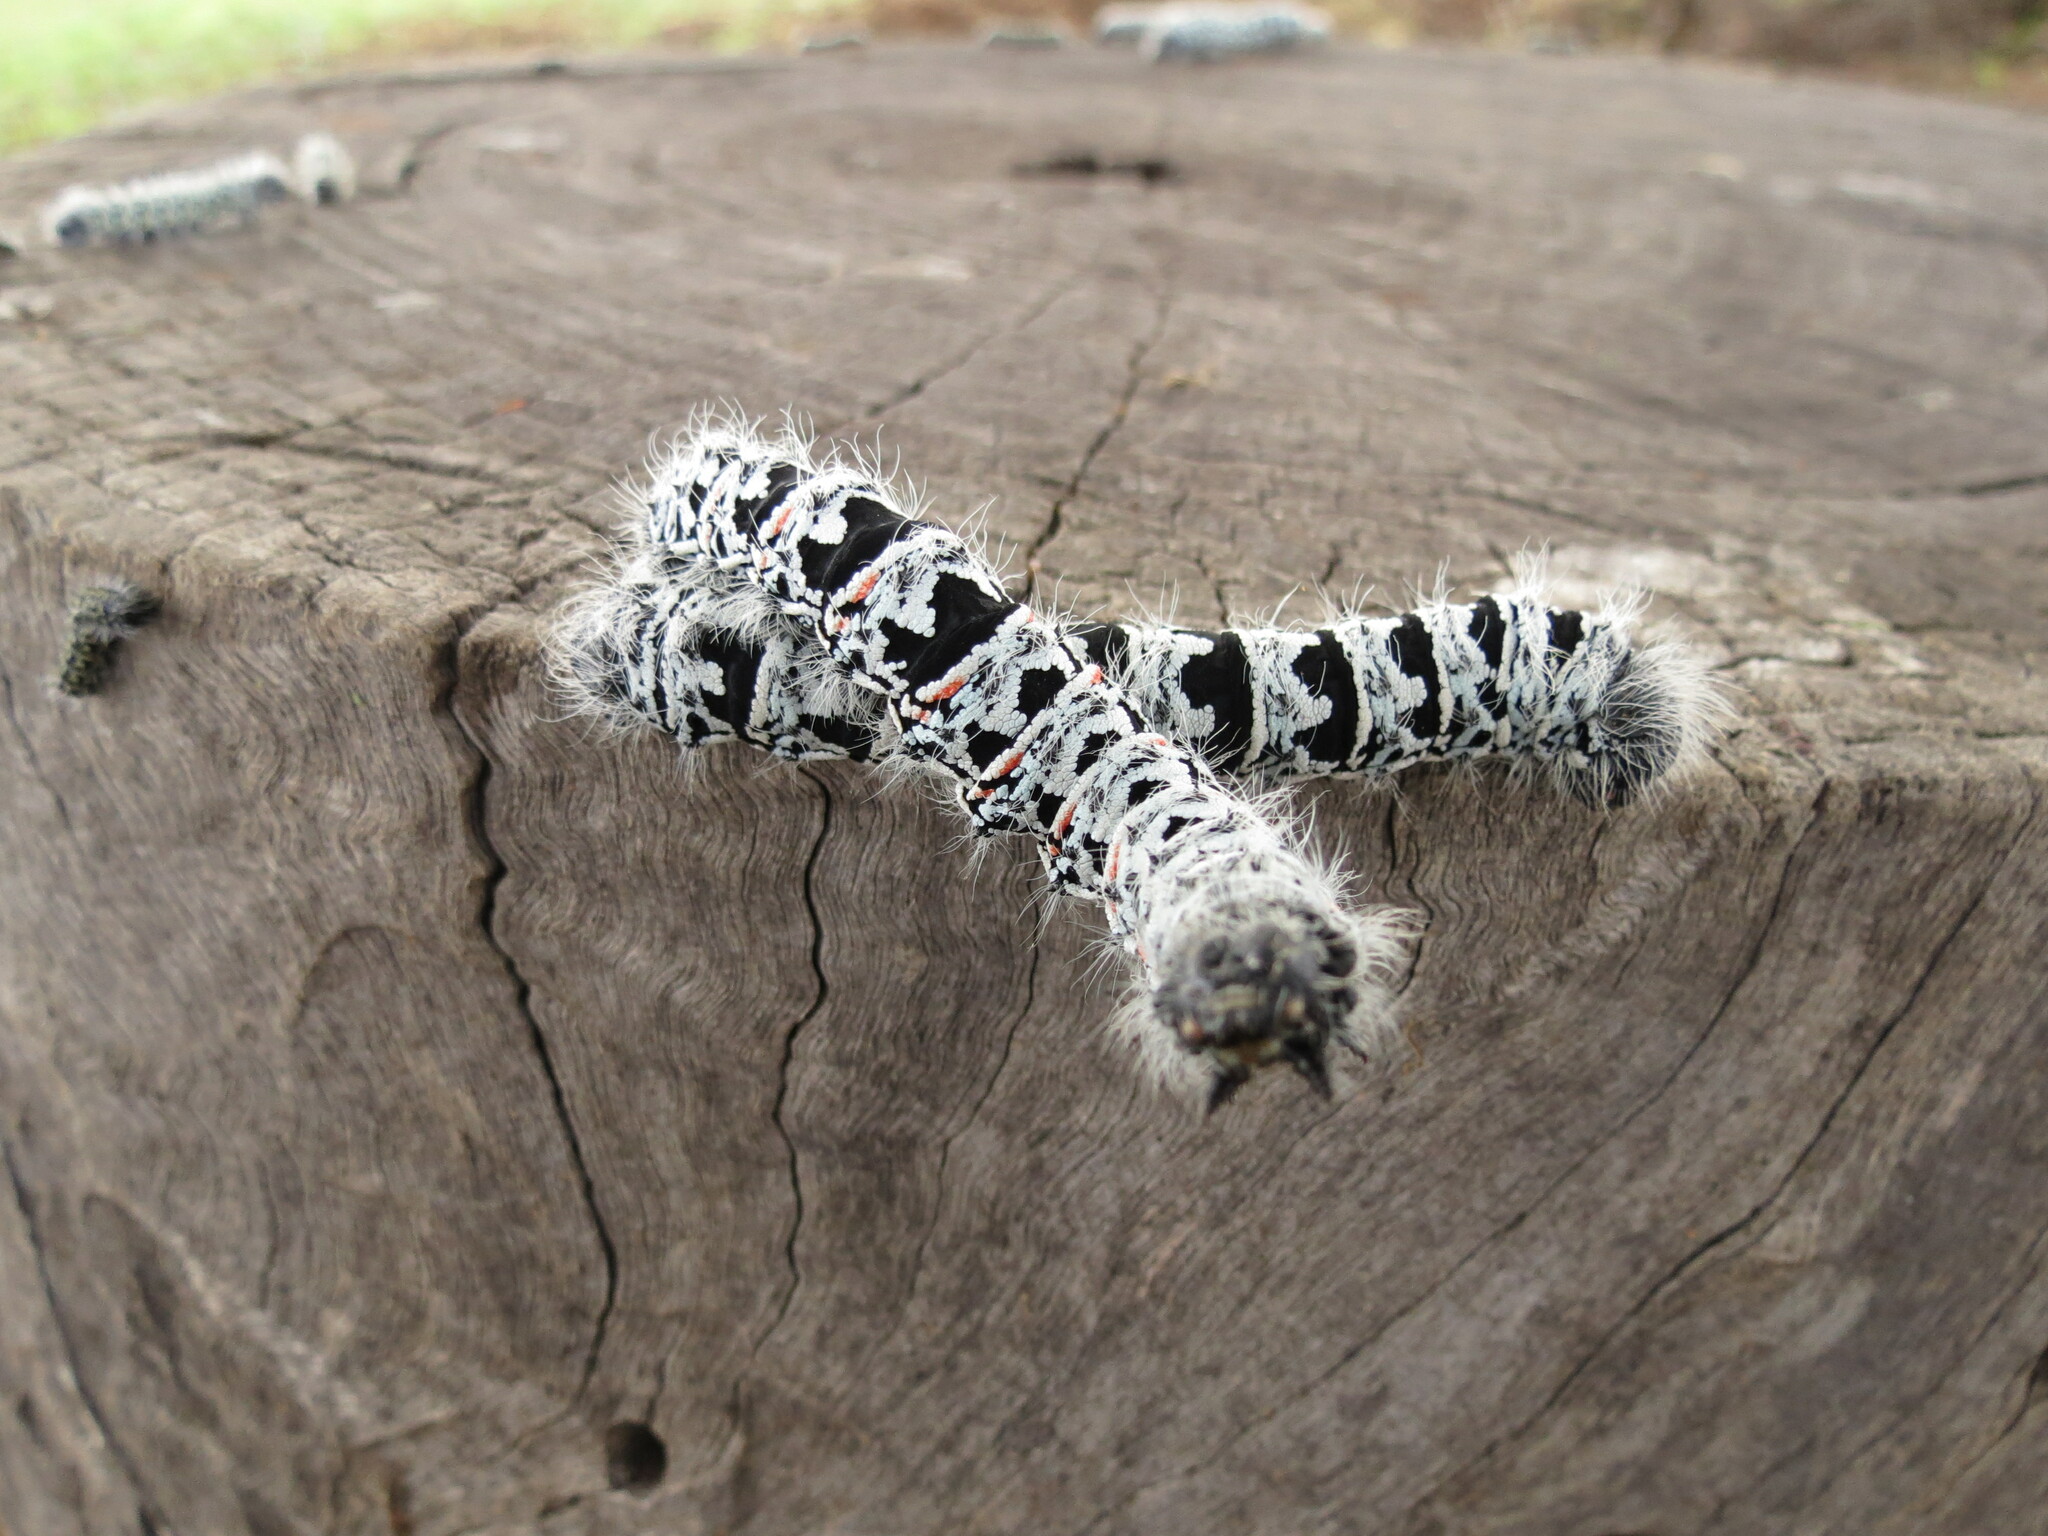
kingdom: Animalia
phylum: Arthropoda
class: Insecta
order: Lepidoptera
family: Saturniidae
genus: Gonimbrasia
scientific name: Gonimbrasia tyrrhea
